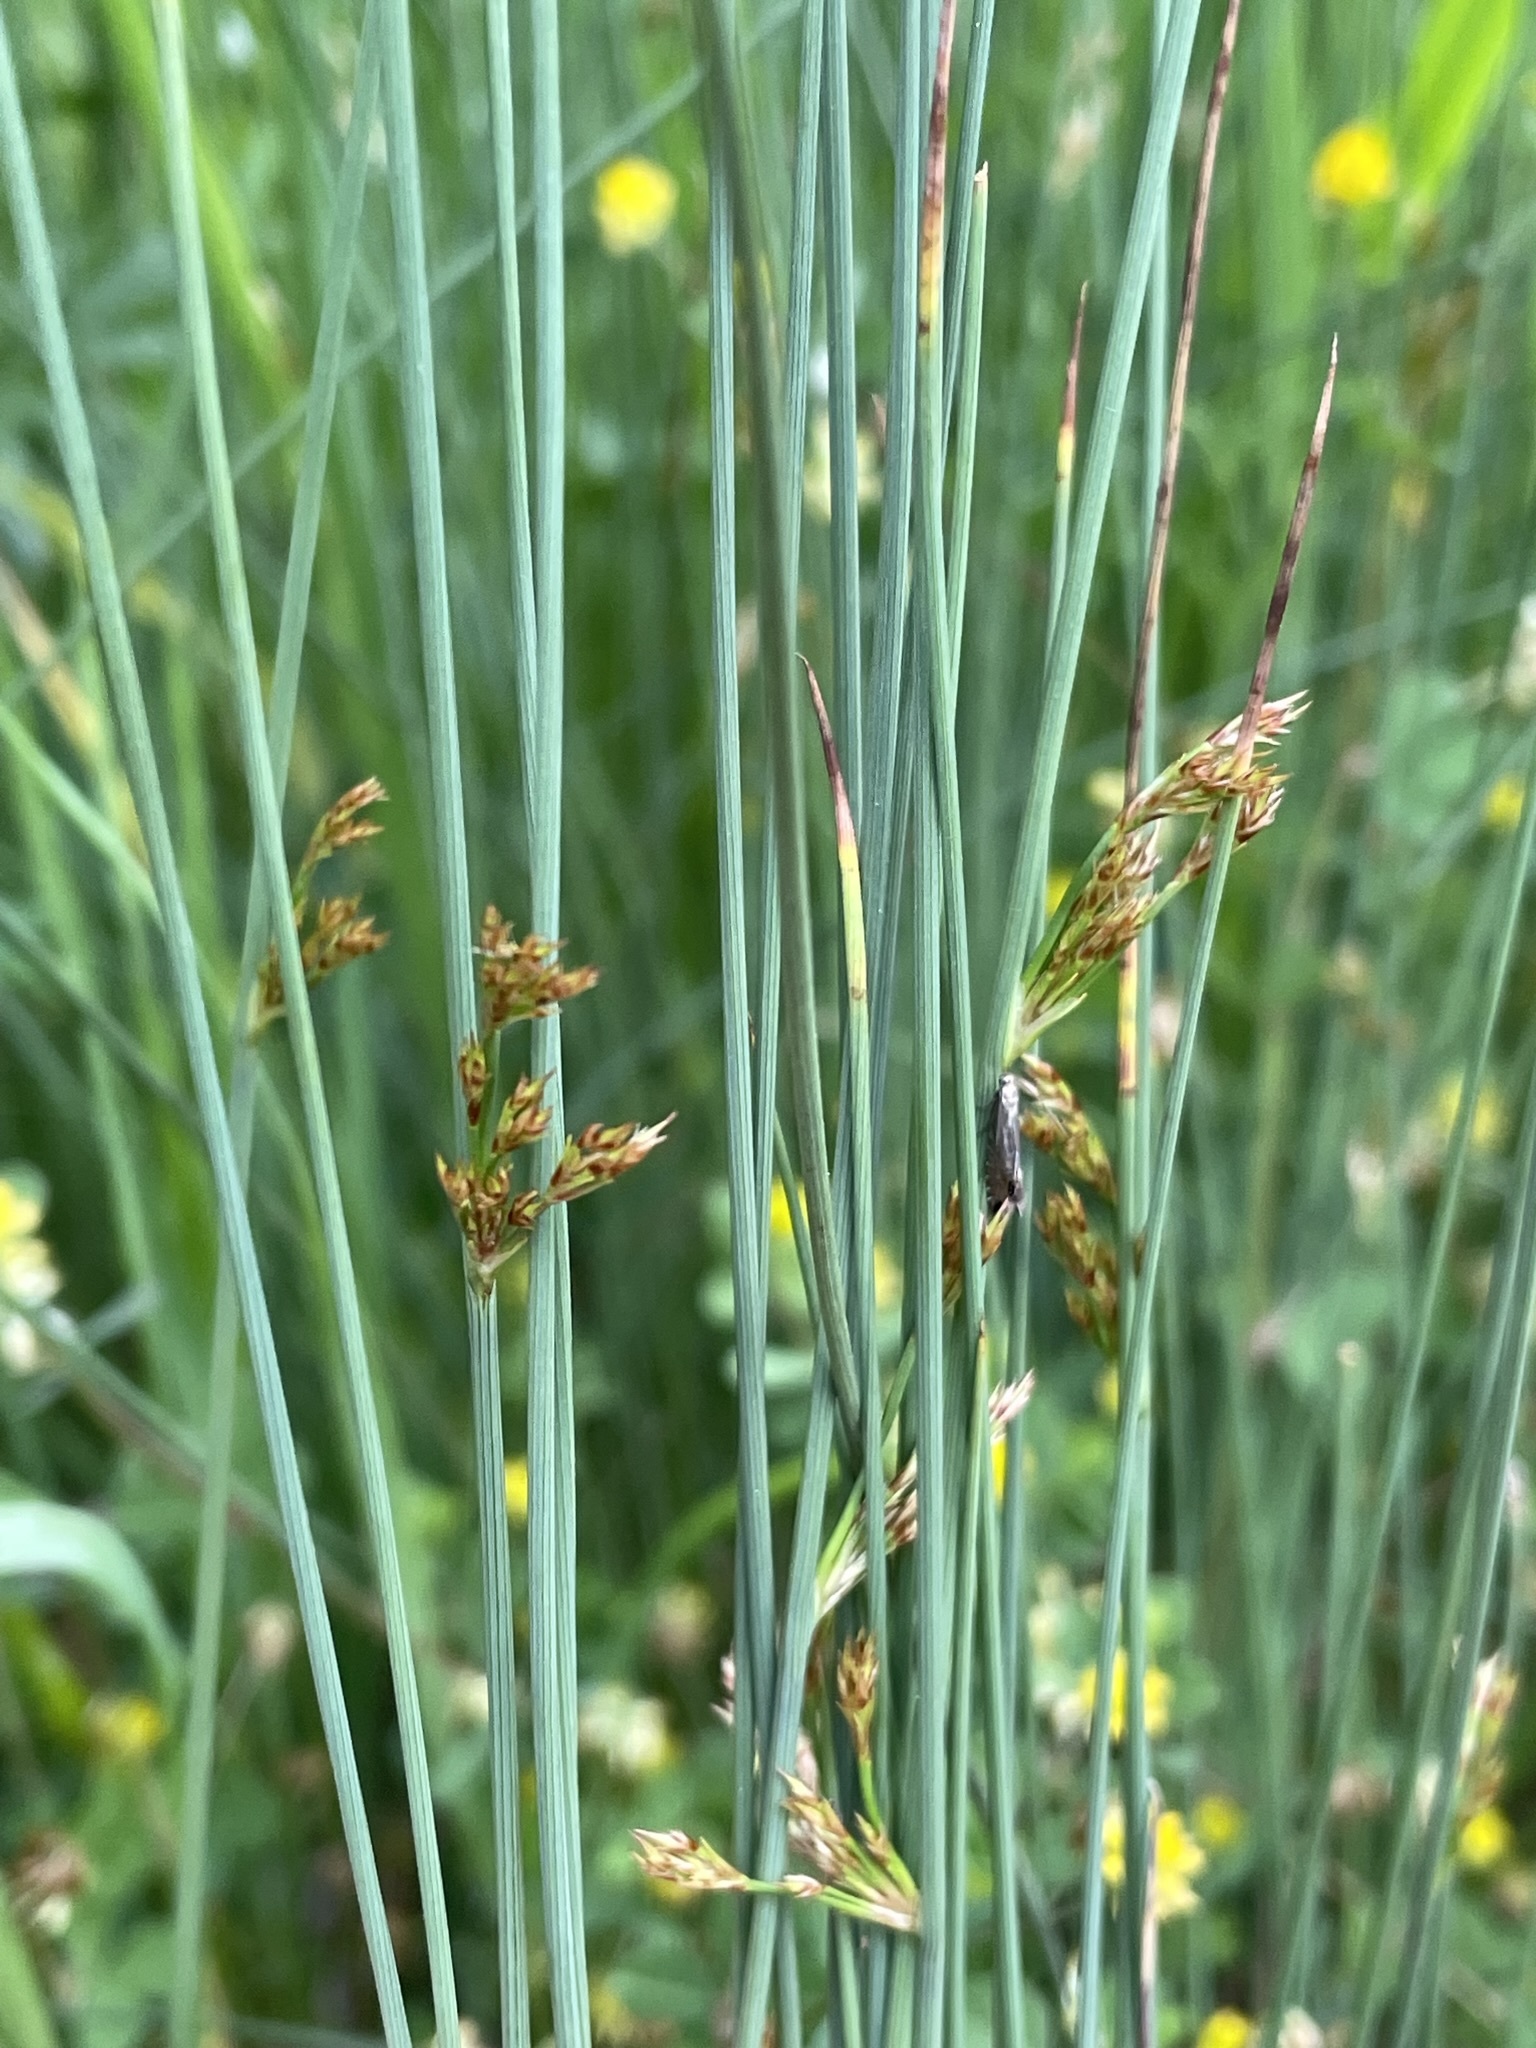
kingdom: Plantae
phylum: Tracheophyta
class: Liliopsida
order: Poales
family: Juncaceae
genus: Juncus
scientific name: Juncus inflexus
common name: Hard rush
